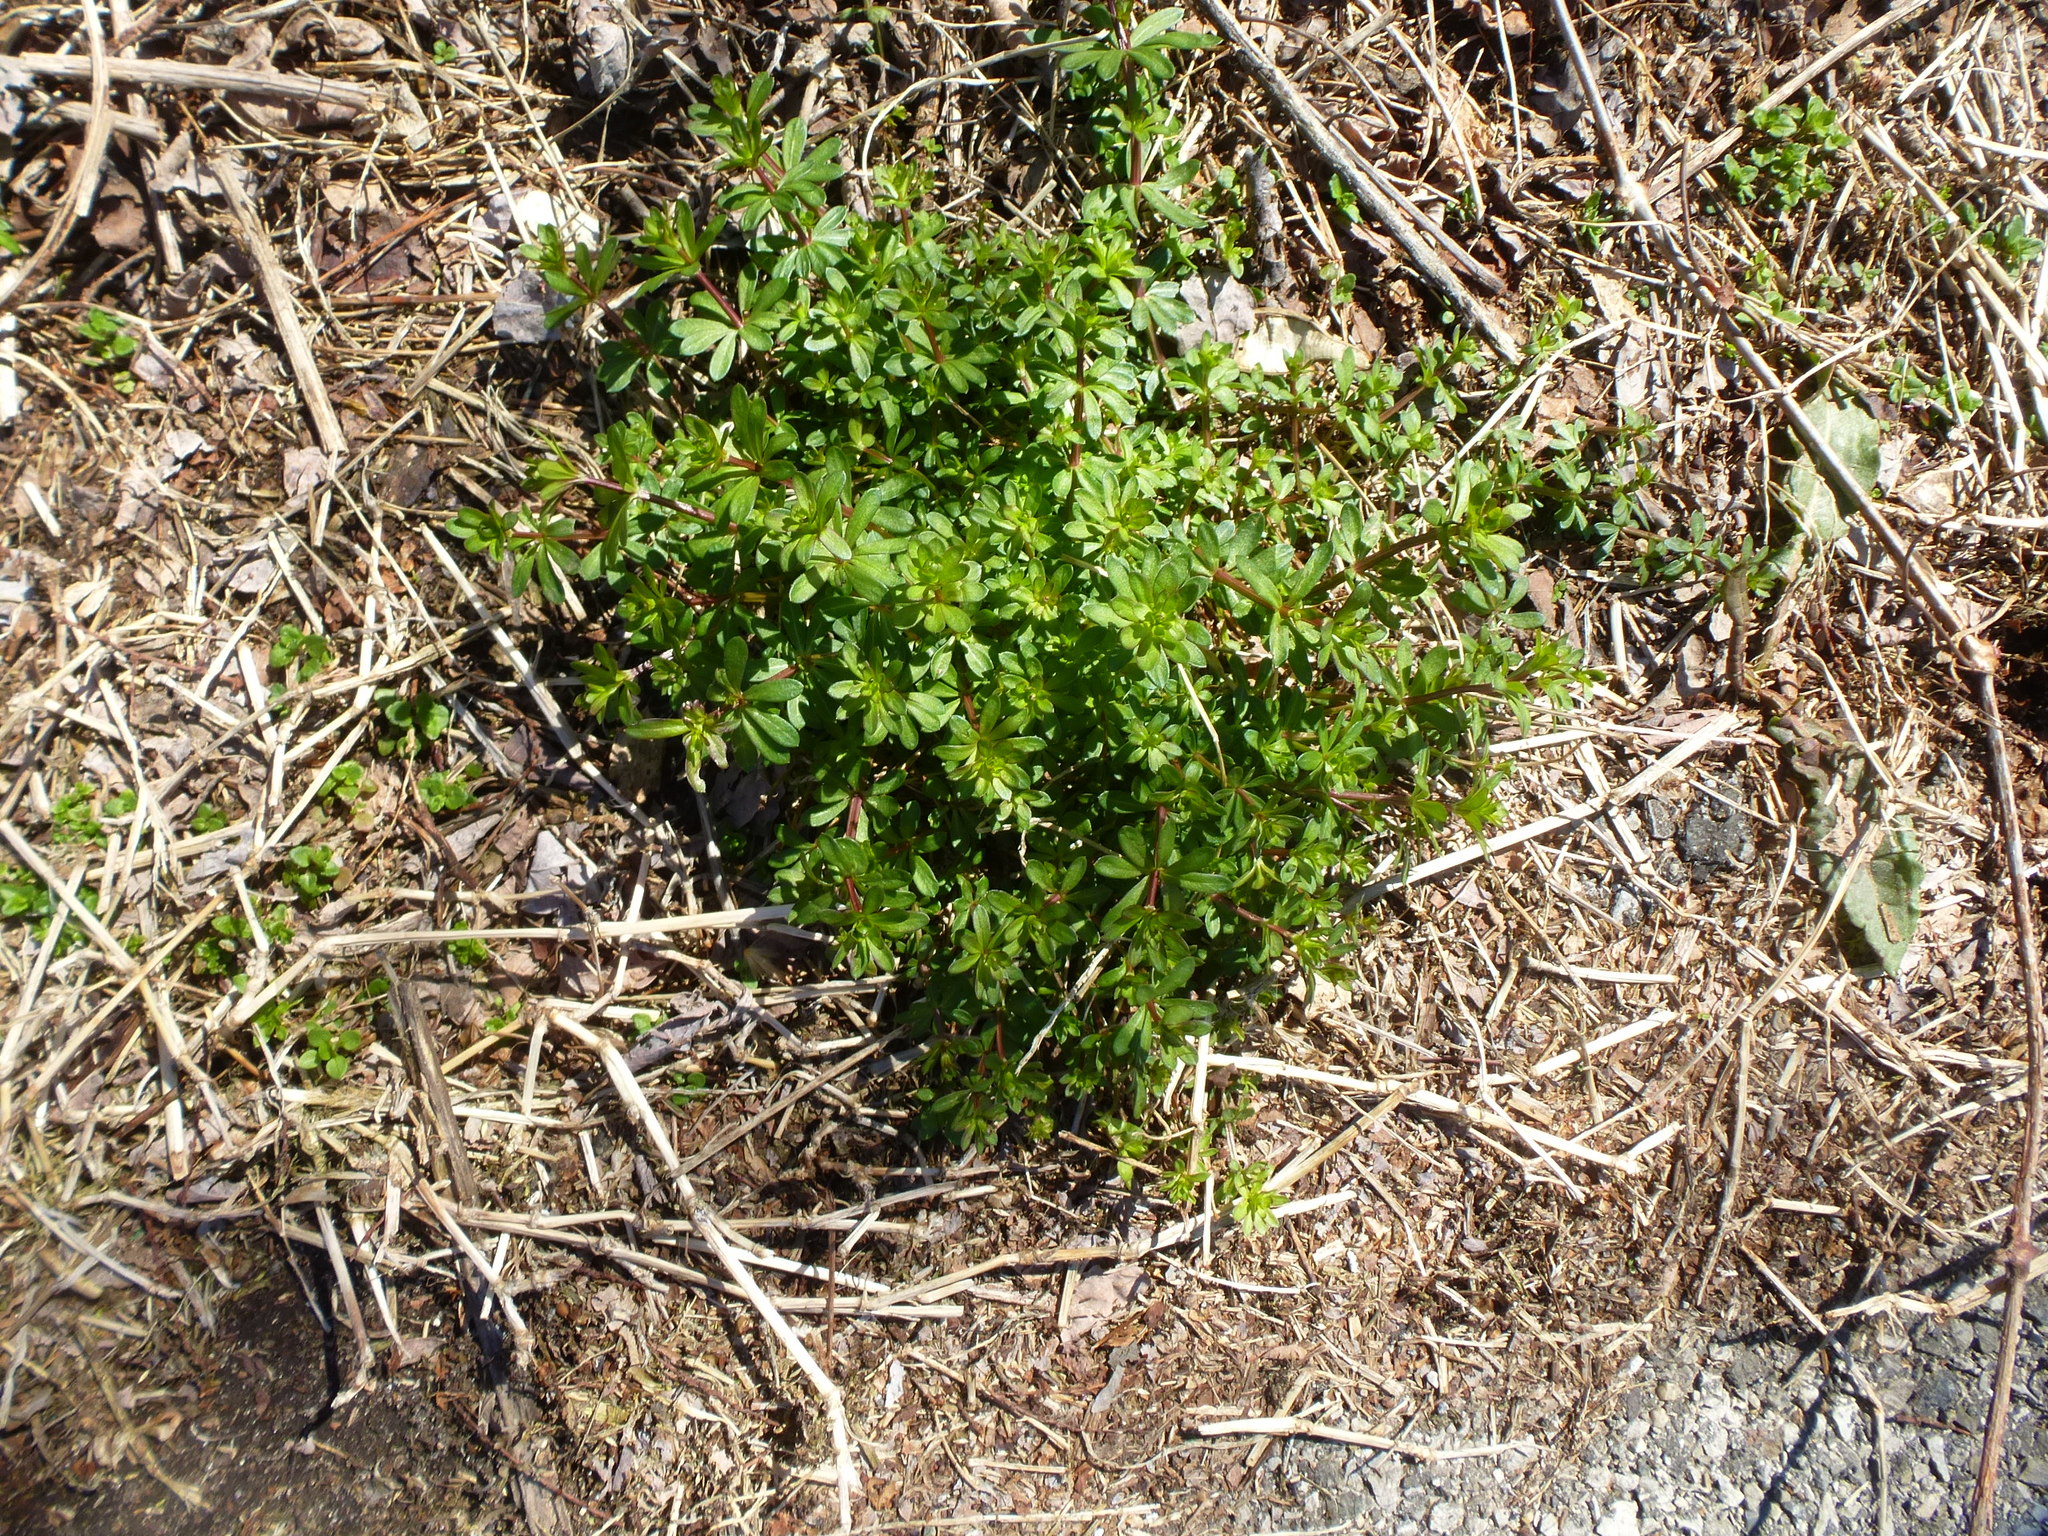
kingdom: Plantae
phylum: Tracheophyta
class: Magnoliopsida
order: Gentianales
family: Rubiaceae
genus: Galium
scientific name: Galium mollugo
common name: Hedge bedstraw
